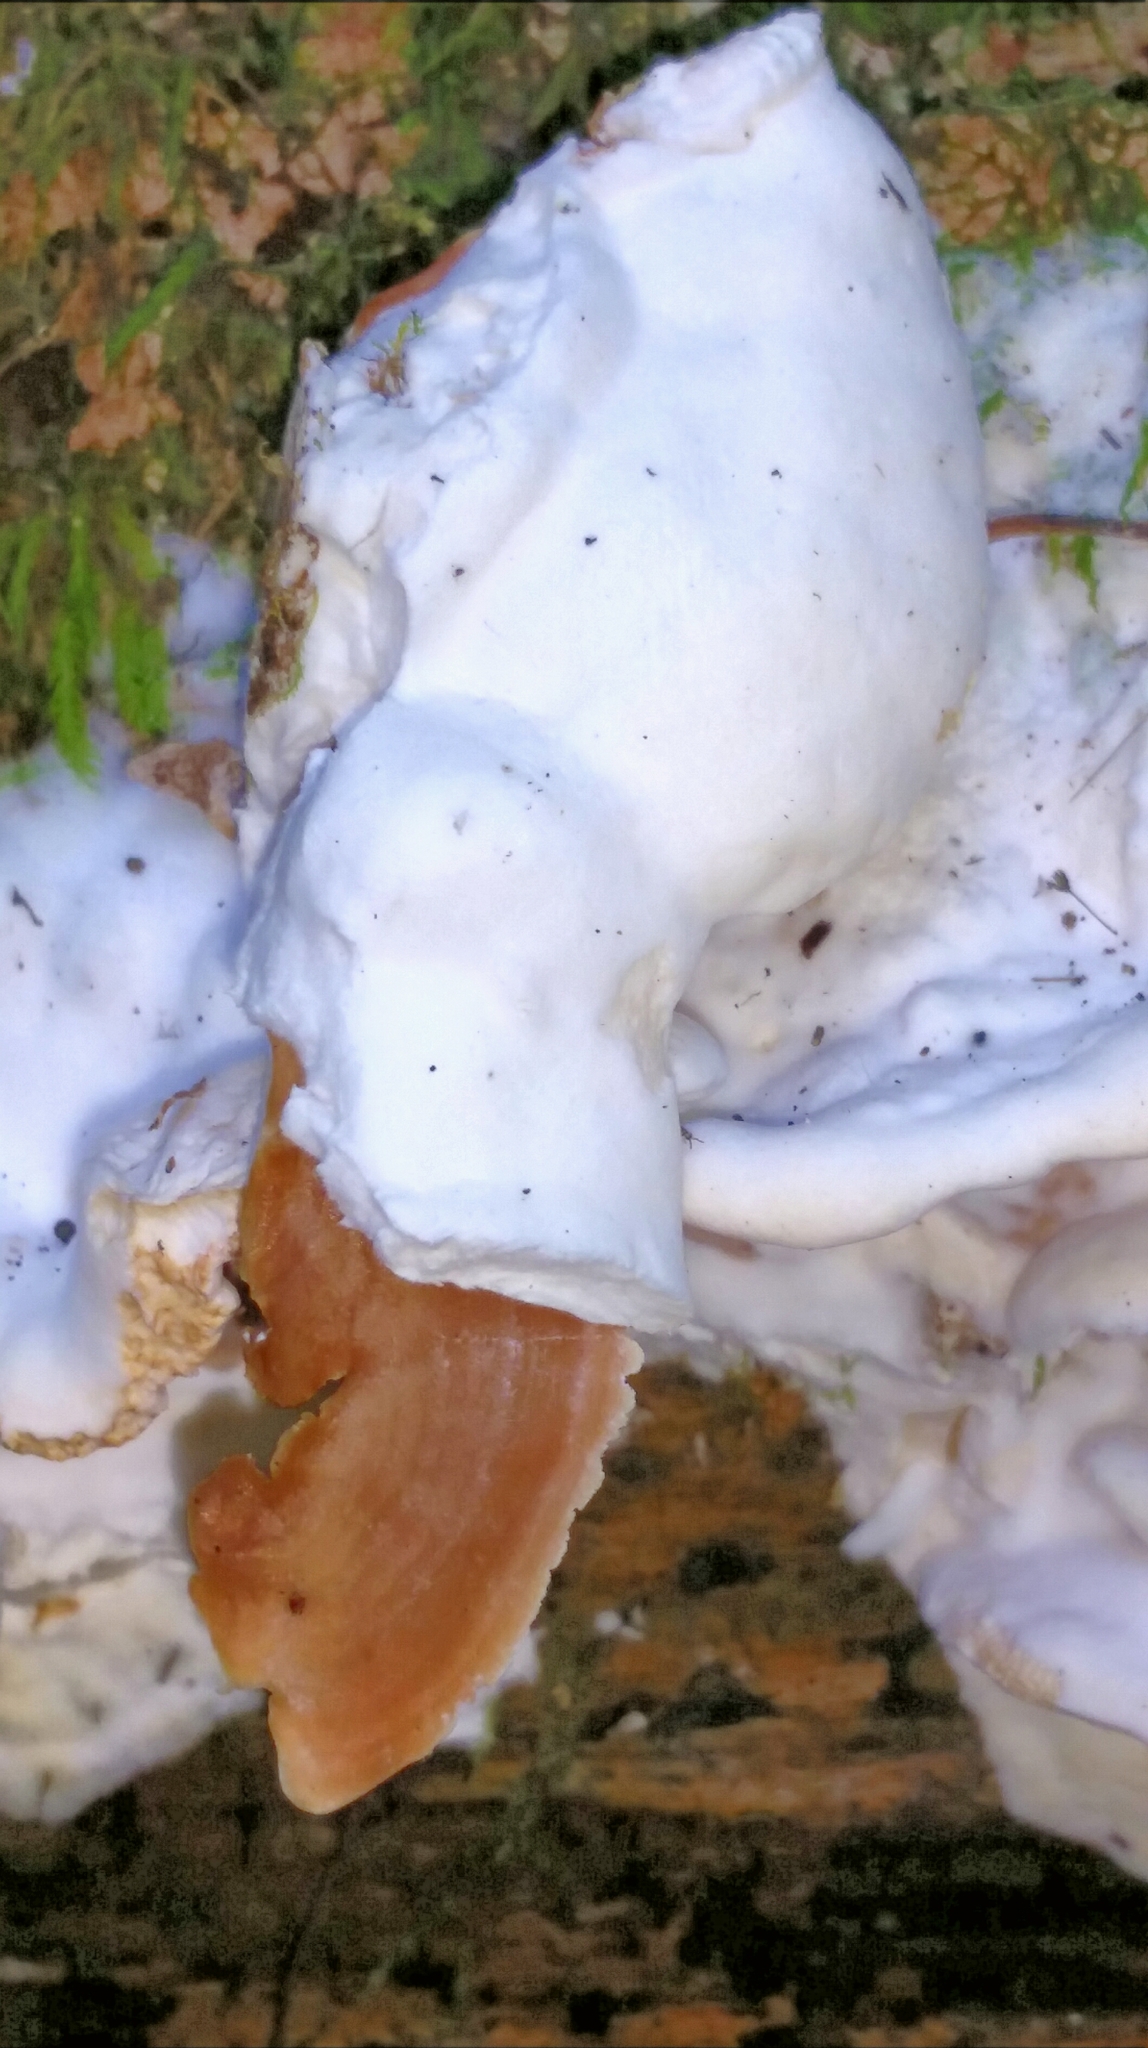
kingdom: Fungi
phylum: Basidiomycota
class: Agaricomycetes
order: Polyporales
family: Irpicaceae
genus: Vitreoporus
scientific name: Vitreoporus dichrous
